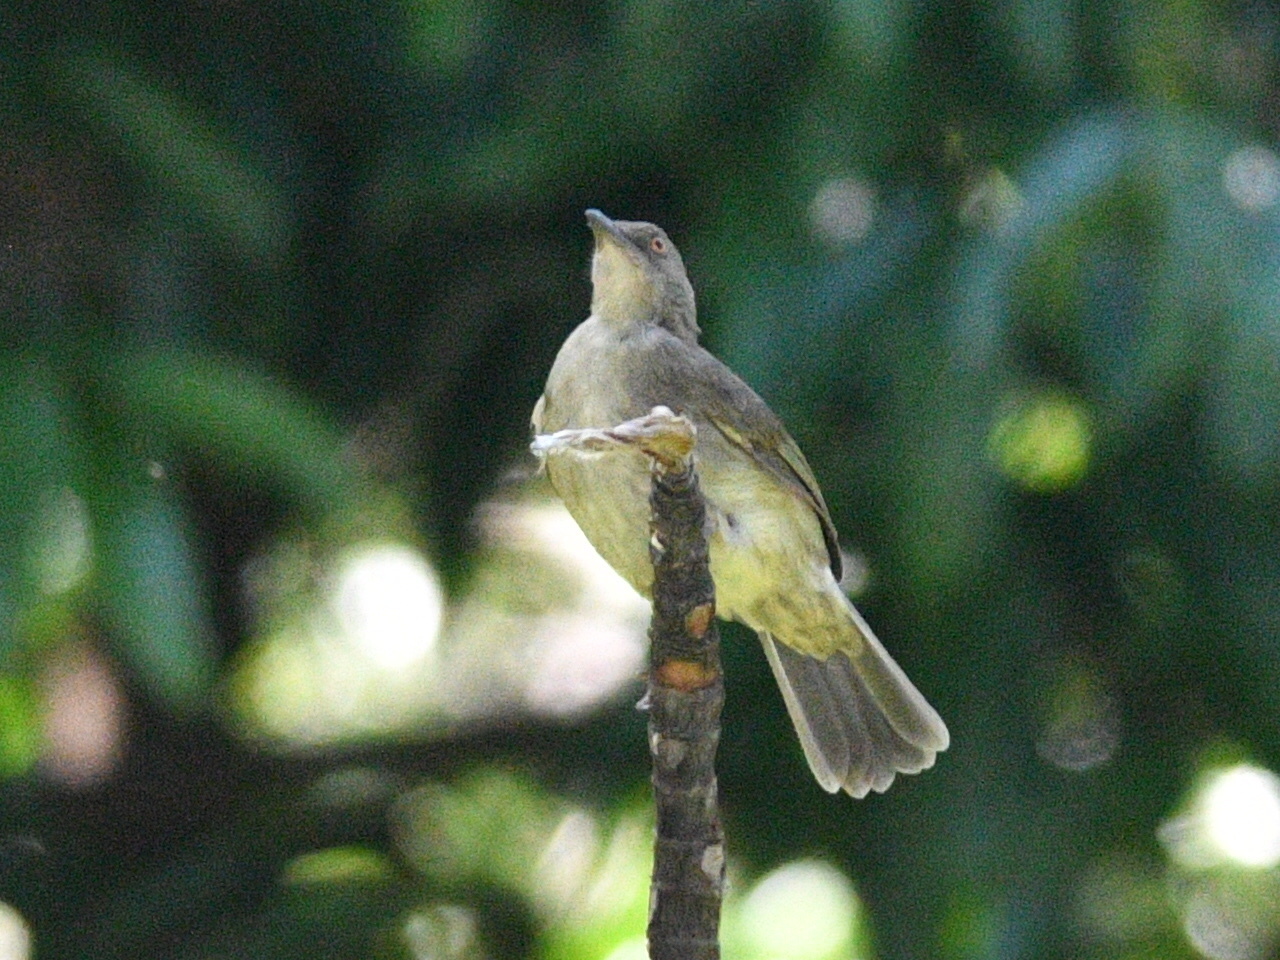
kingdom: Animalia
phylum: Chordata
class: Aves
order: Passeriformes
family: Pycnonotidae
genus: Pycnonotus
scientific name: Pycnonotus brunneus
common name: Asian red-eyed bulbul
